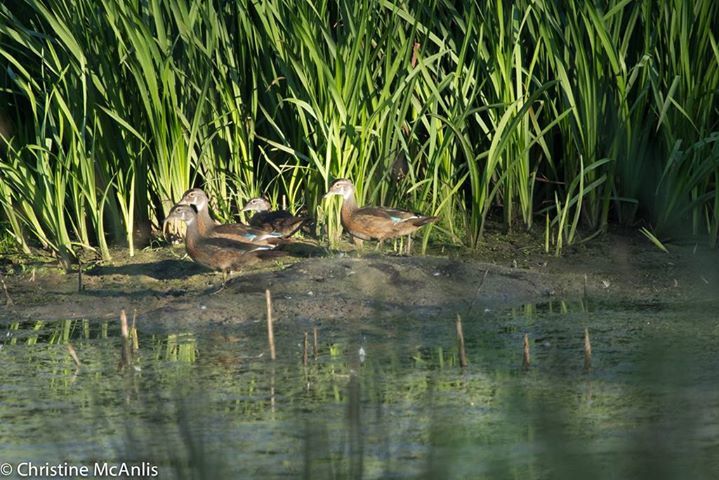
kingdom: Animalia
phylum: Chordata
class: Aves
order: Anseriformes
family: Anatidae
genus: Aix
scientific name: Aix sponsa
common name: Wood duck
